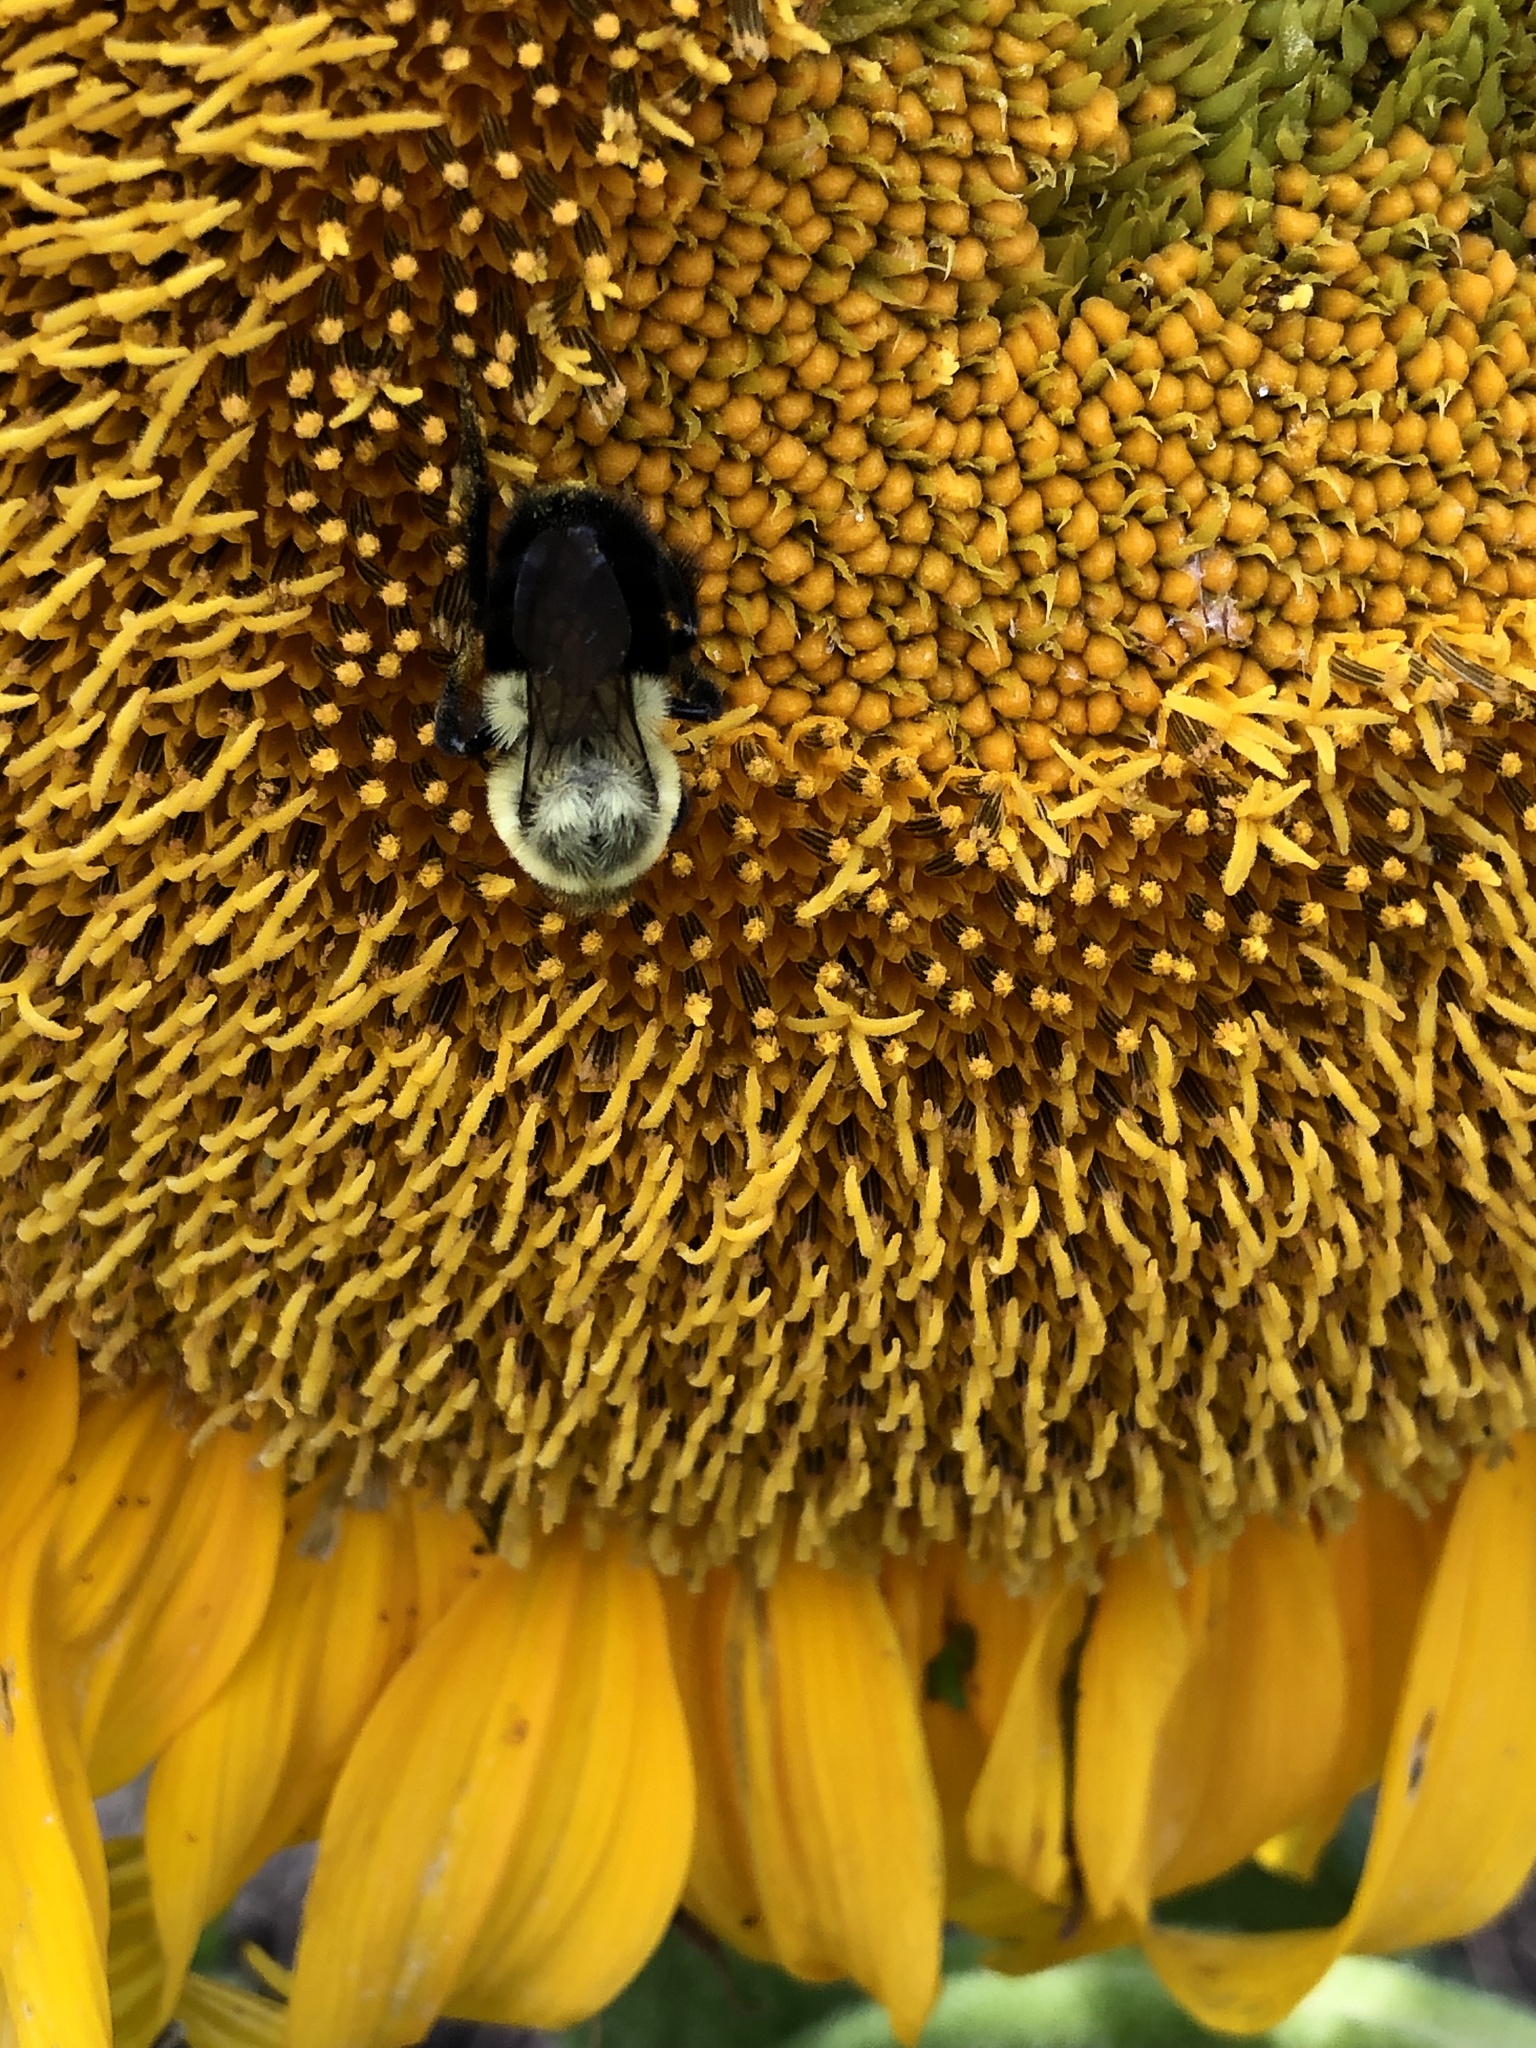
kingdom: Animalia
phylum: Arthropoda
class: Insecta
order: Hymenoptera
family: Apidae
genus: Bombus
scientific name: Bombus impatiens
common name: Common eastern bumble bee
